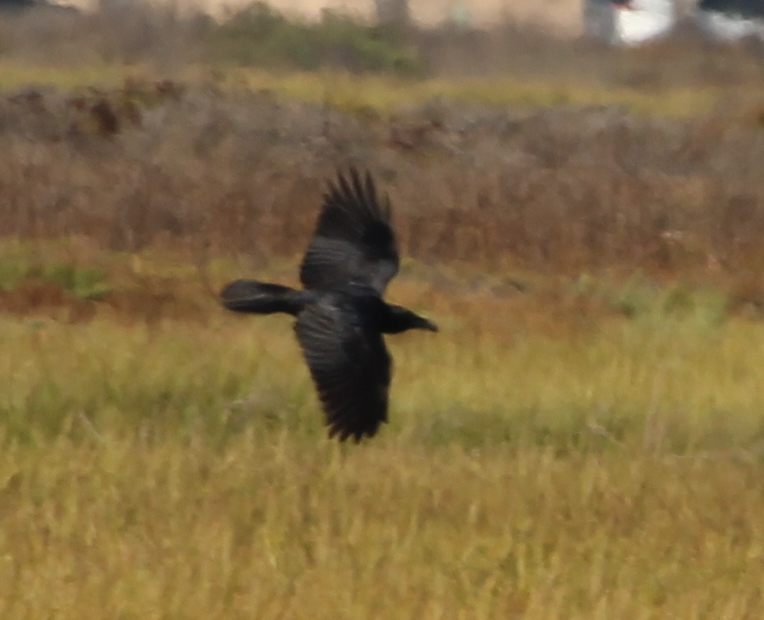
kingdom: Animalia
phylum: Chordata
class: Aves
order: Passeriformes
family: Corvidae
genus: Corvus
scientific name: Corvus corax
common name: Common raven
